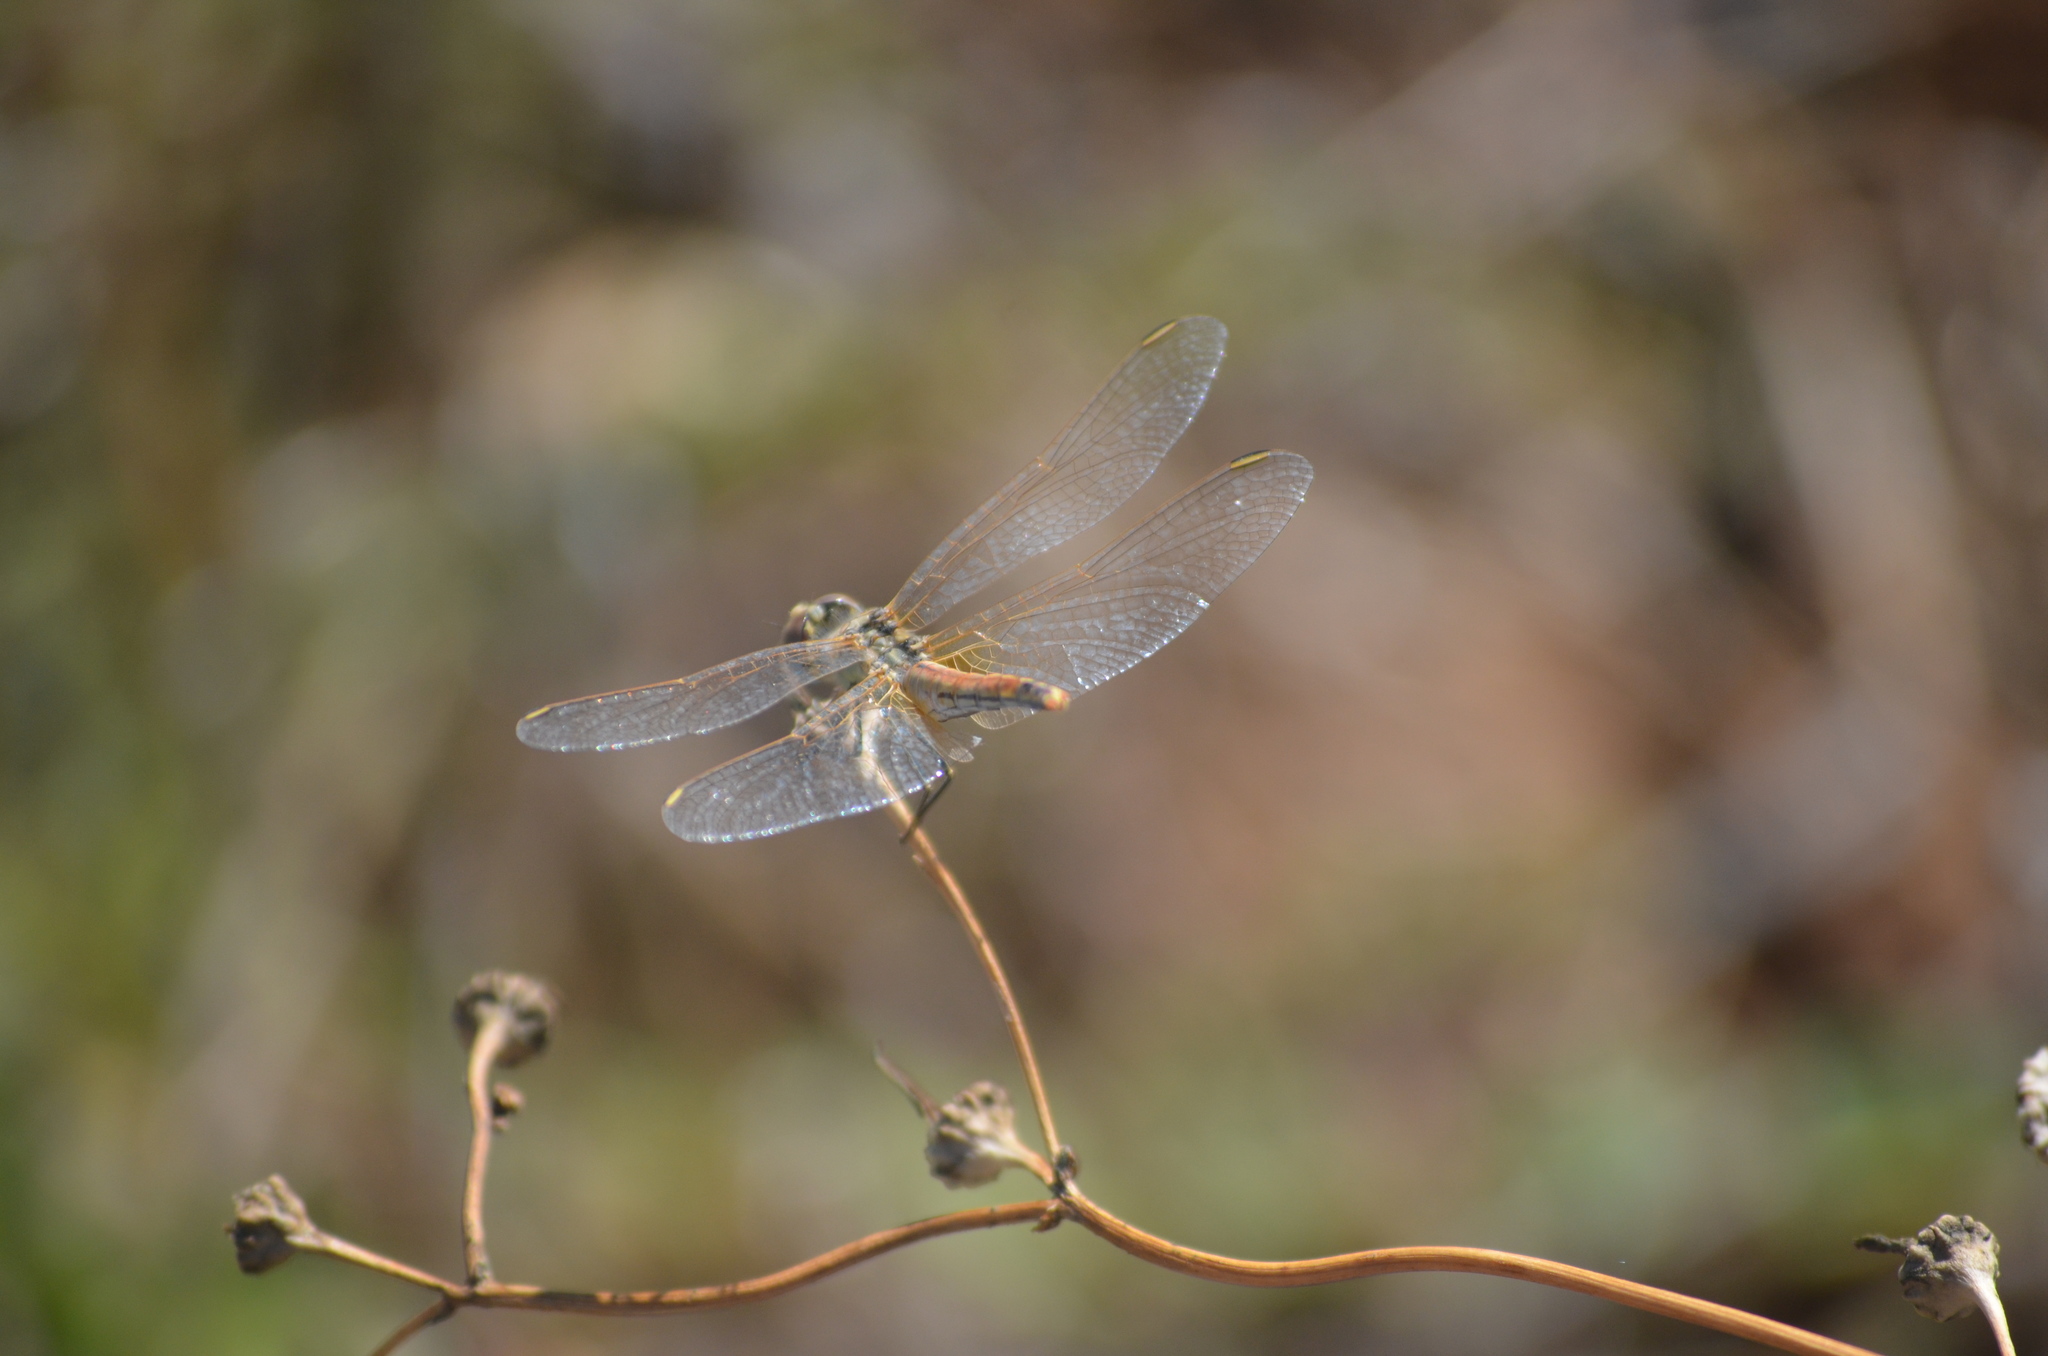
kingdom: Animalia
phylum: Arthropoda
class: Insecta
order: Odonata
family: Libellulidae
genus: Sympetrum
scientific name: Sympetrum fonscolombii
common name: Red-veined darter
